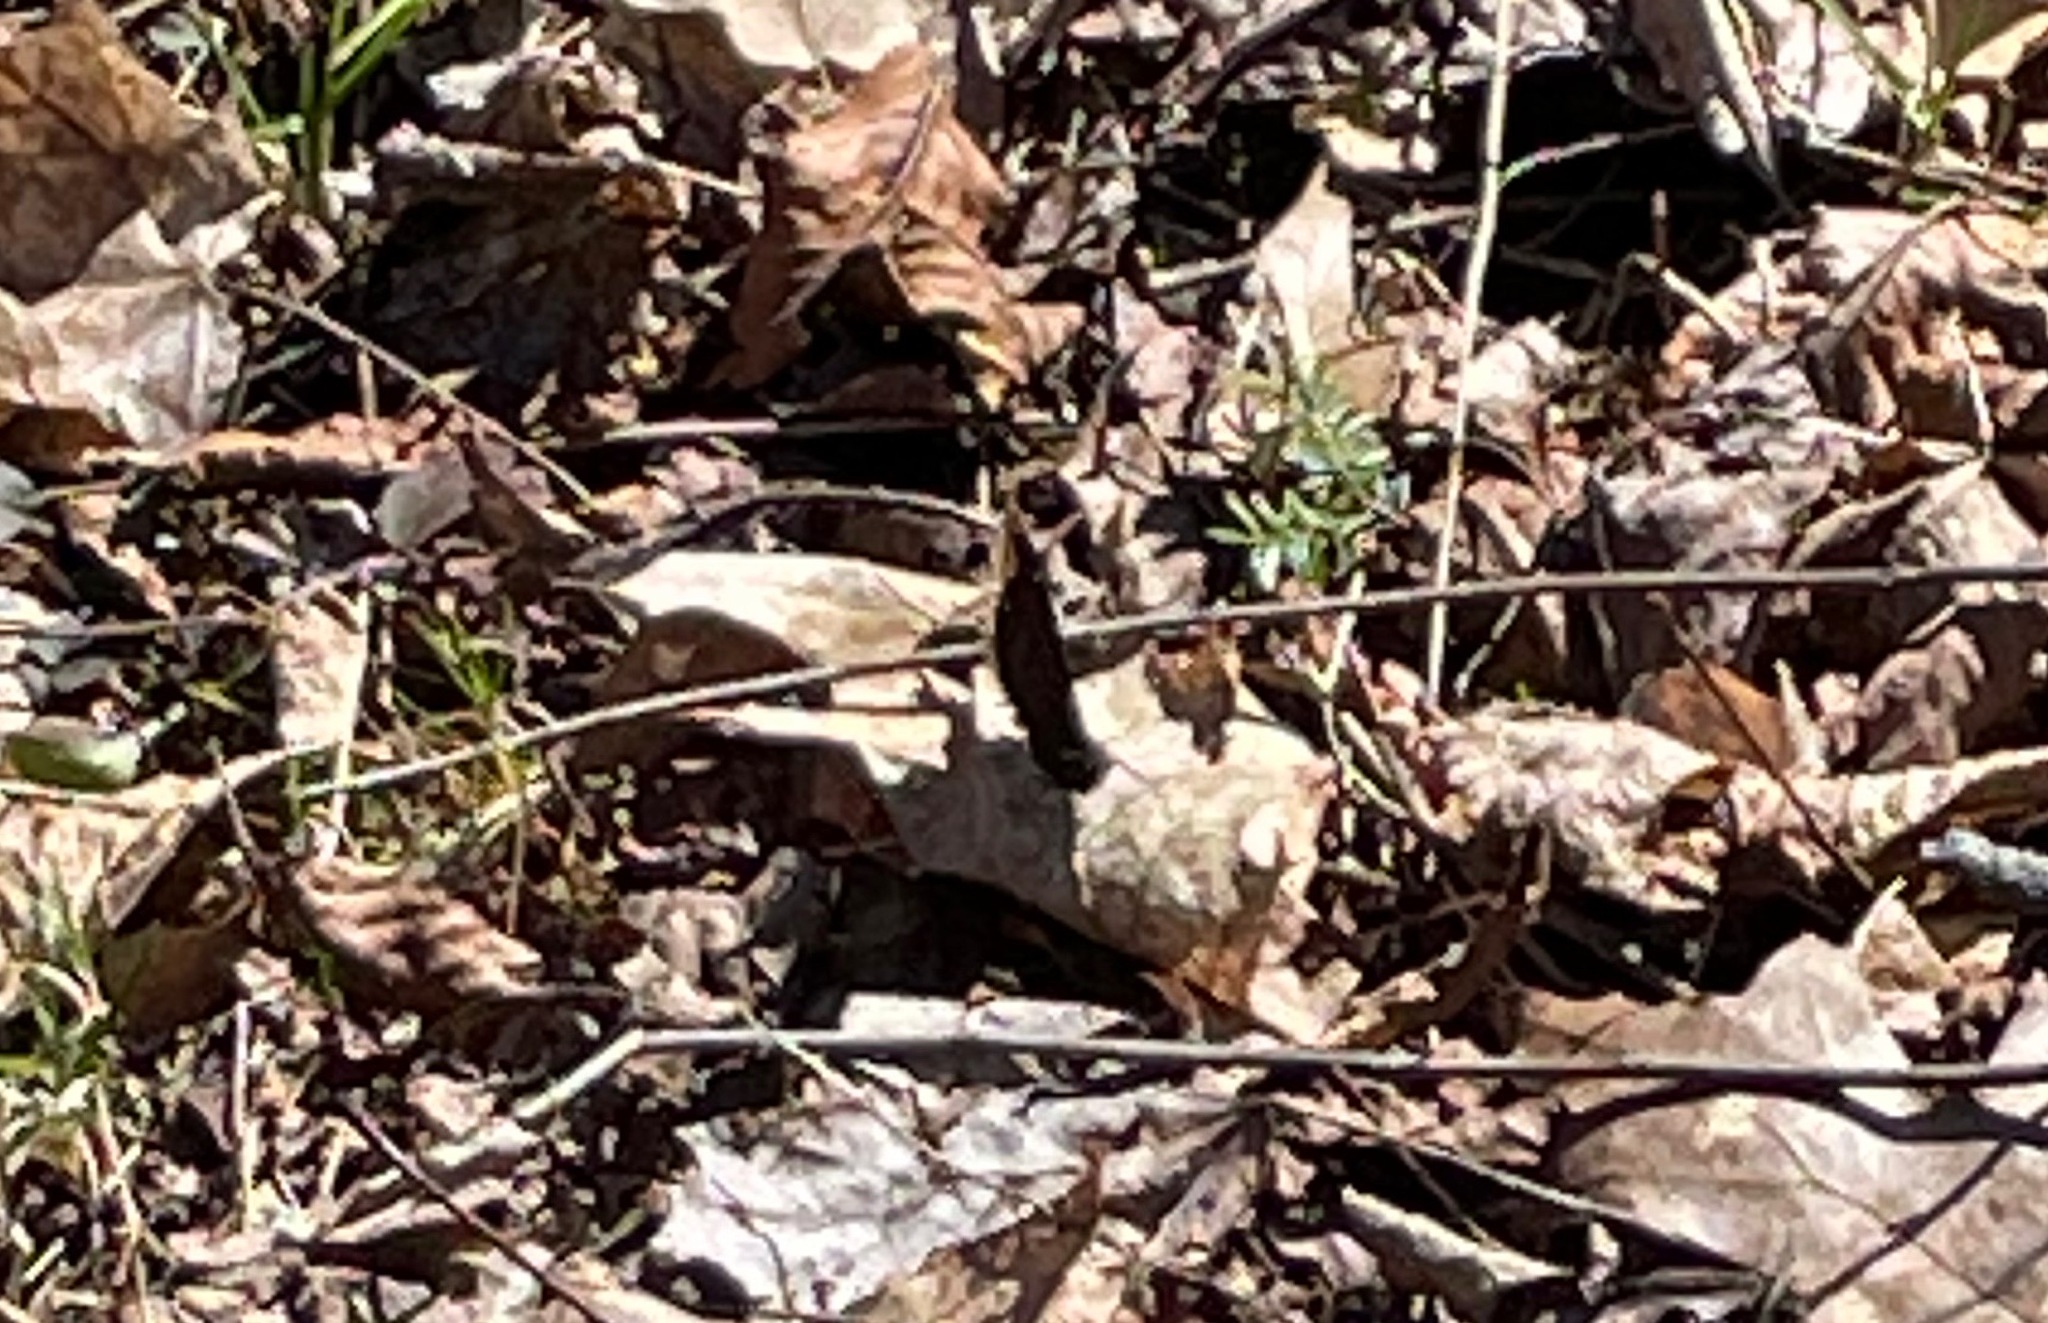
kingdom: Animalia
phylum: Arthropoda
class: Insecta
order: Lepidoptera
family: Nymphalidae
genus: Nymphalis
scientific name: Nymphalis antiopa
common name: Camberwell beauty
